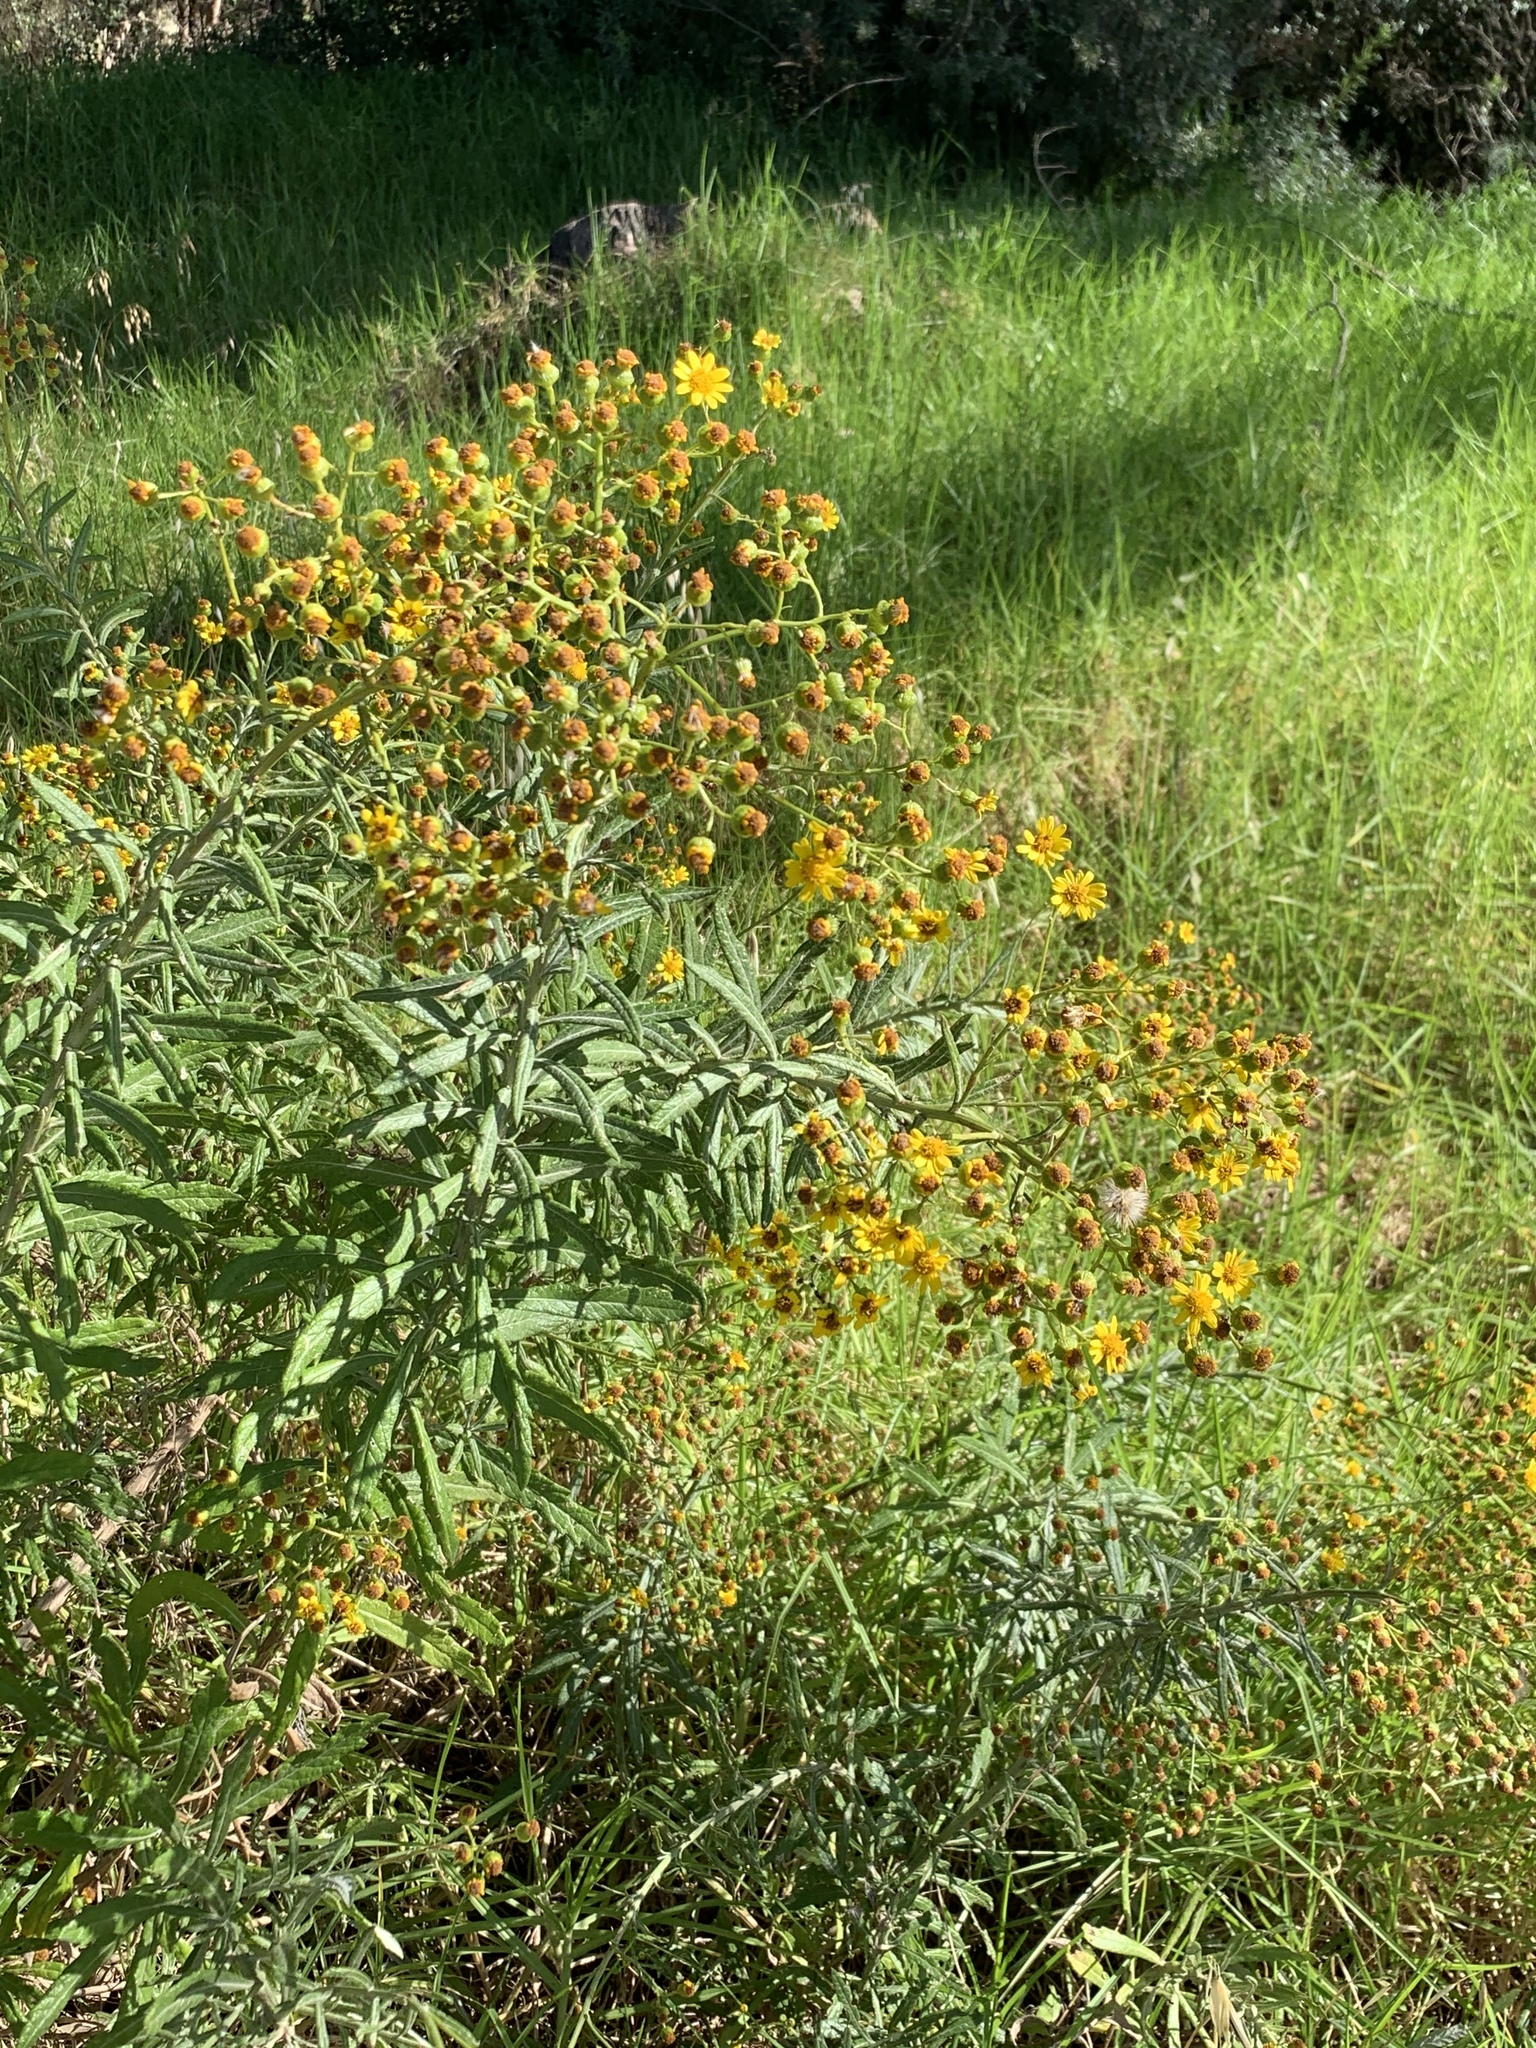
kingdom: Plantae
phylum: Tracheophyta
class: Magnoliopsida
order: Asterales
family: Asteraceae
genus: Senecio
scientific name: Senecio pterophorus
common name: Shoddy ragwort
